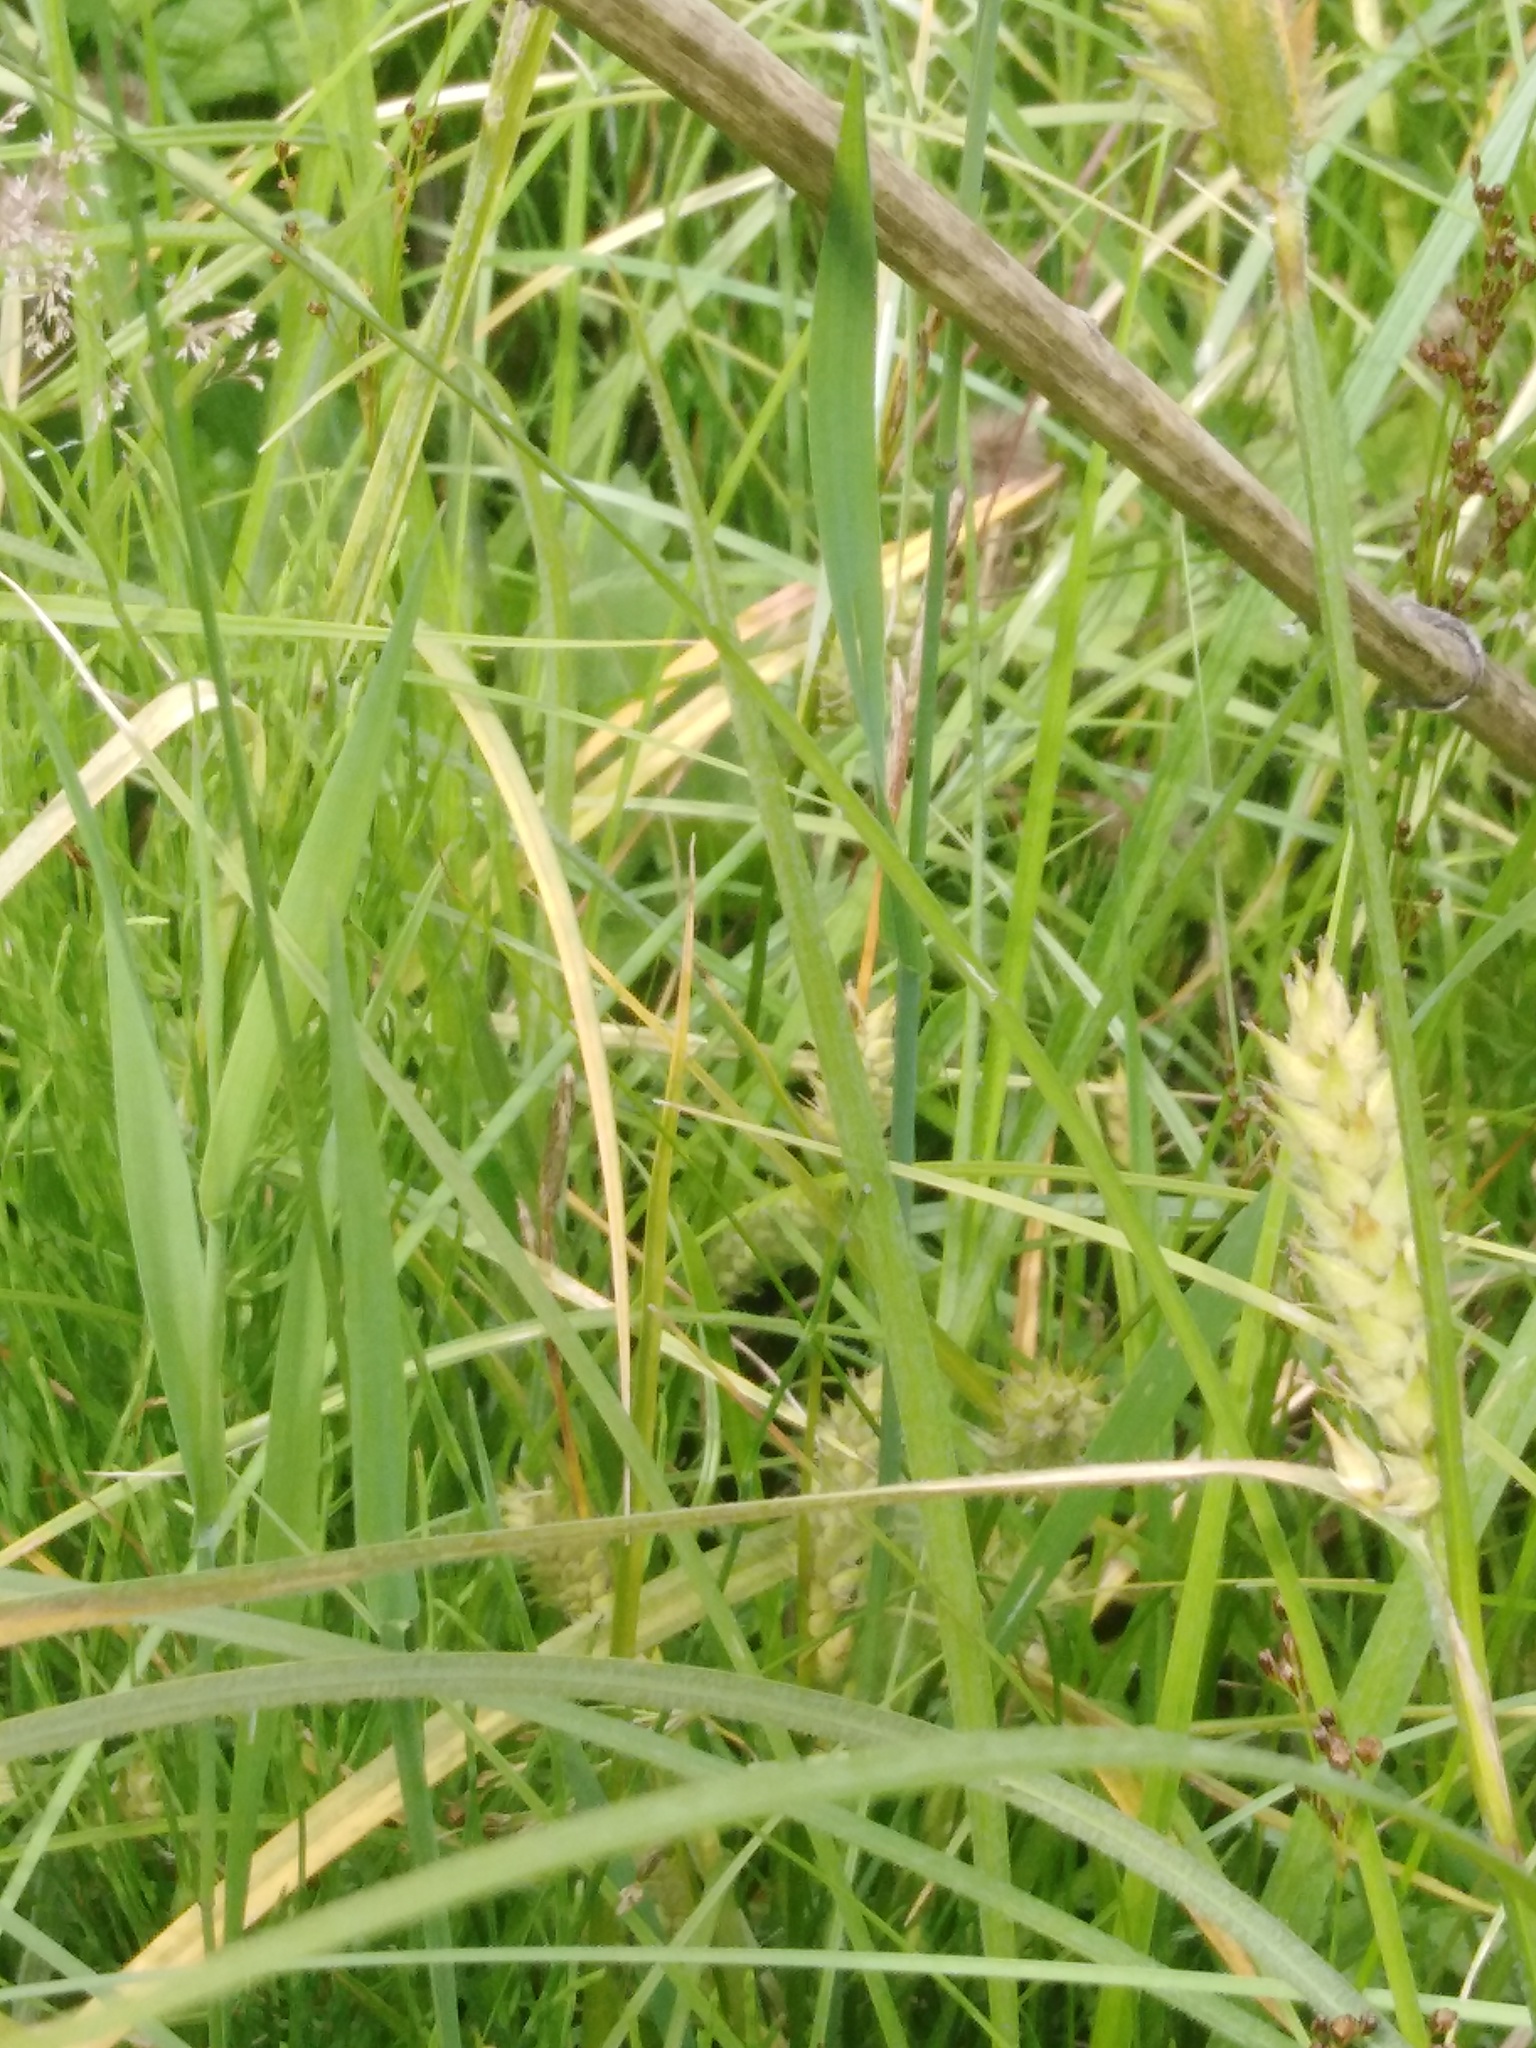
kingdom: Plantae
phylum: Tracheophyta
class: Liliopsida
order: Poales
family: Cyperaceae
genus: Carex
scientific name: Carex hirta
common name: Hairy sedge
